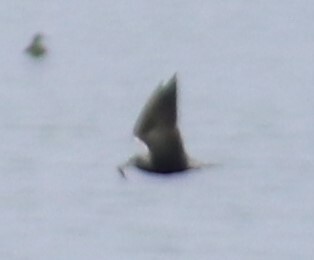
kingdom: Animalia
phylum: Chordata
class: Aves
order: Charadriiformes
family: Laridae
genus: Chlidonias
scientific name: Chlidonias niger
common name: Black tern
